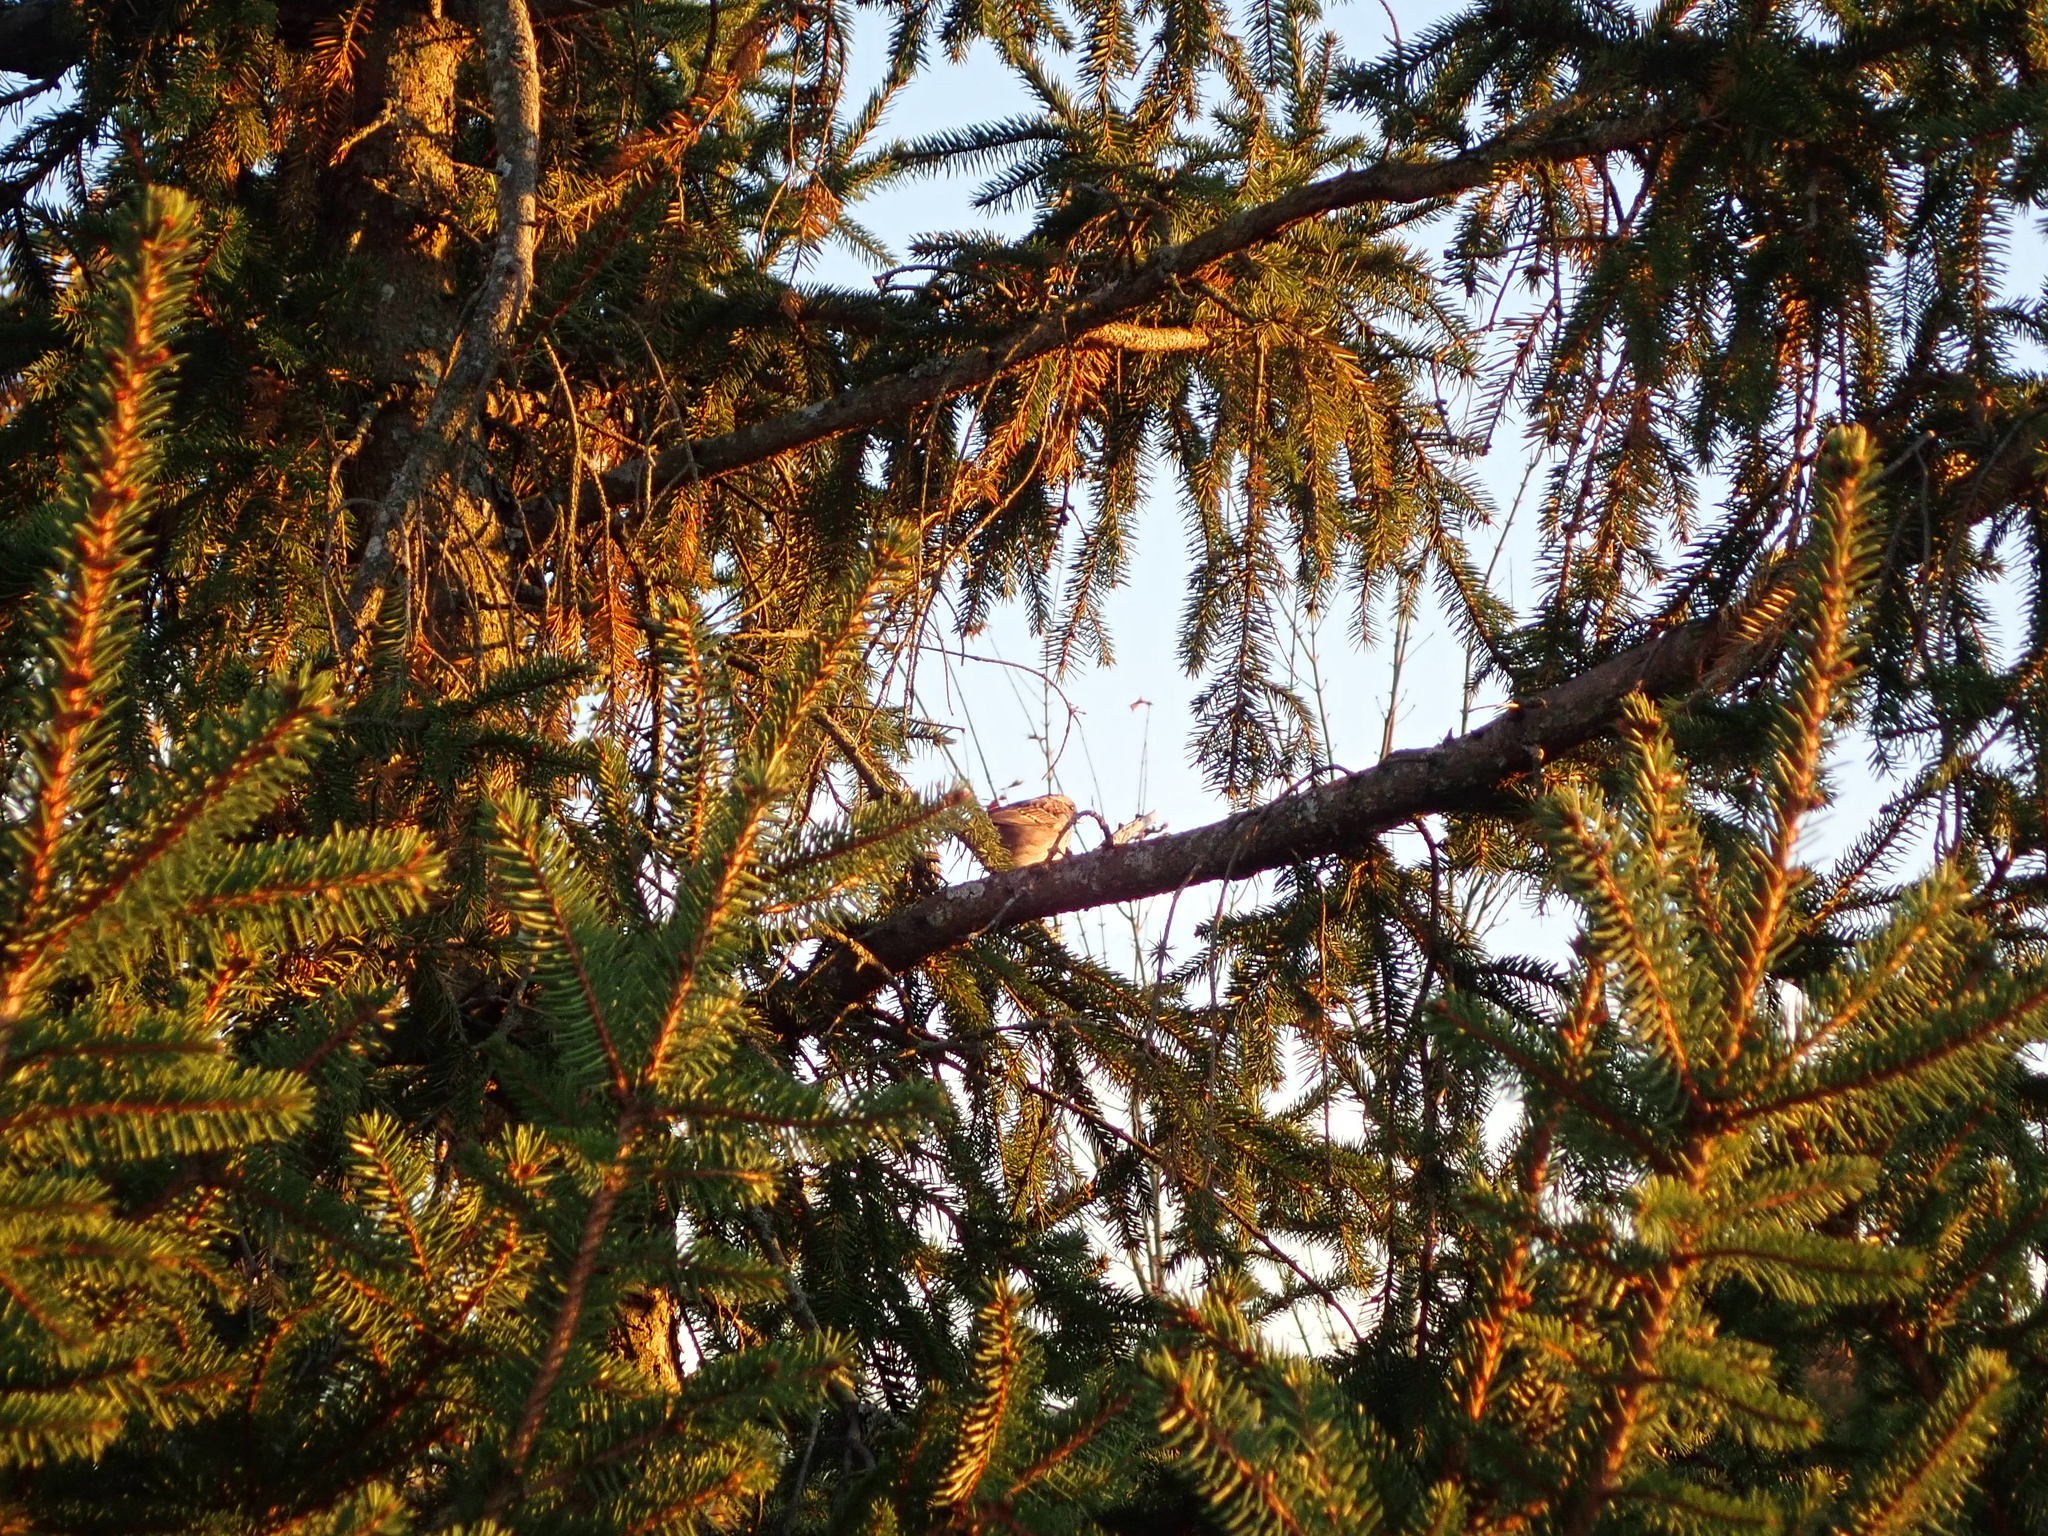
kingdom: Animalia
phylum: Chordata
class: Aves
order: Passeriformes
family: Passerellidae
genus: Zonotrichia
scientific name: Zonotrichia albicollis
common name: White-throated sparrow
